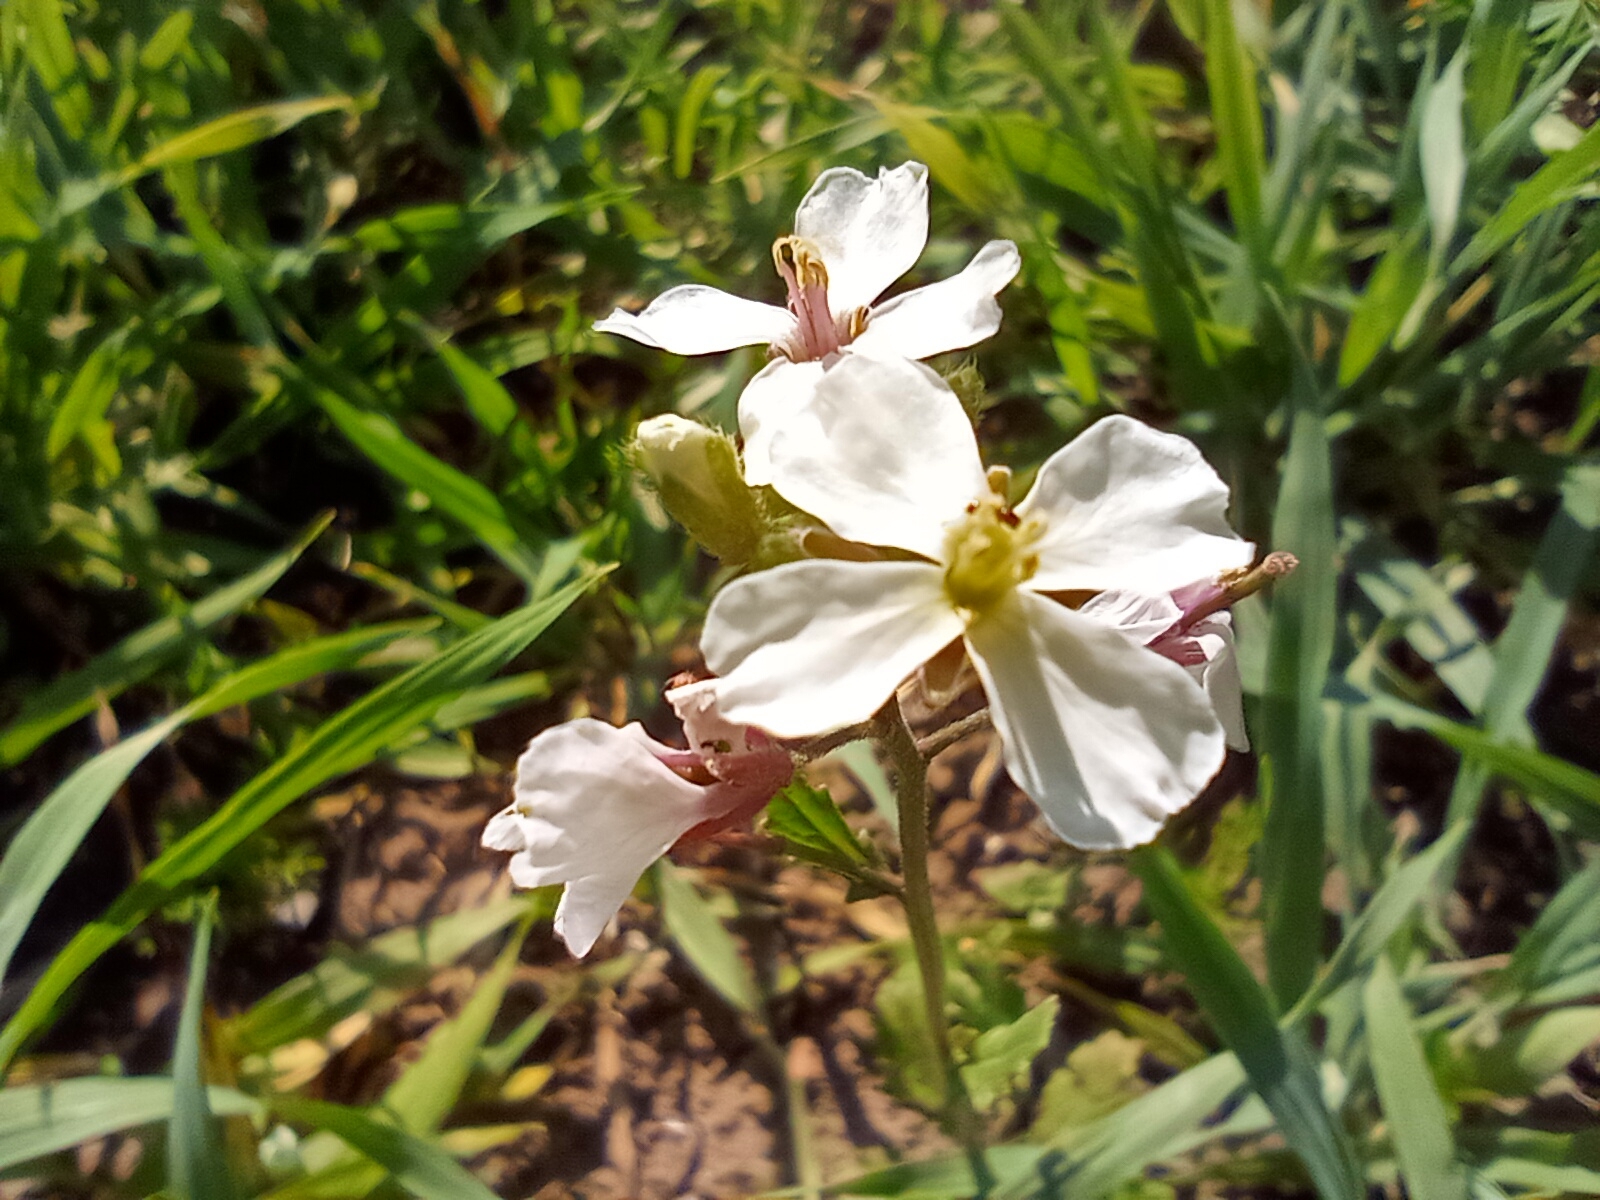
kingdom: Plantae
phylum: Tracheophyta
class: Magnoliopsida
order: Brassicales
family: Brassicaceae
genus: Diplotaxis
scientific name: Diplotaxis erucoides
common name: White rocket
